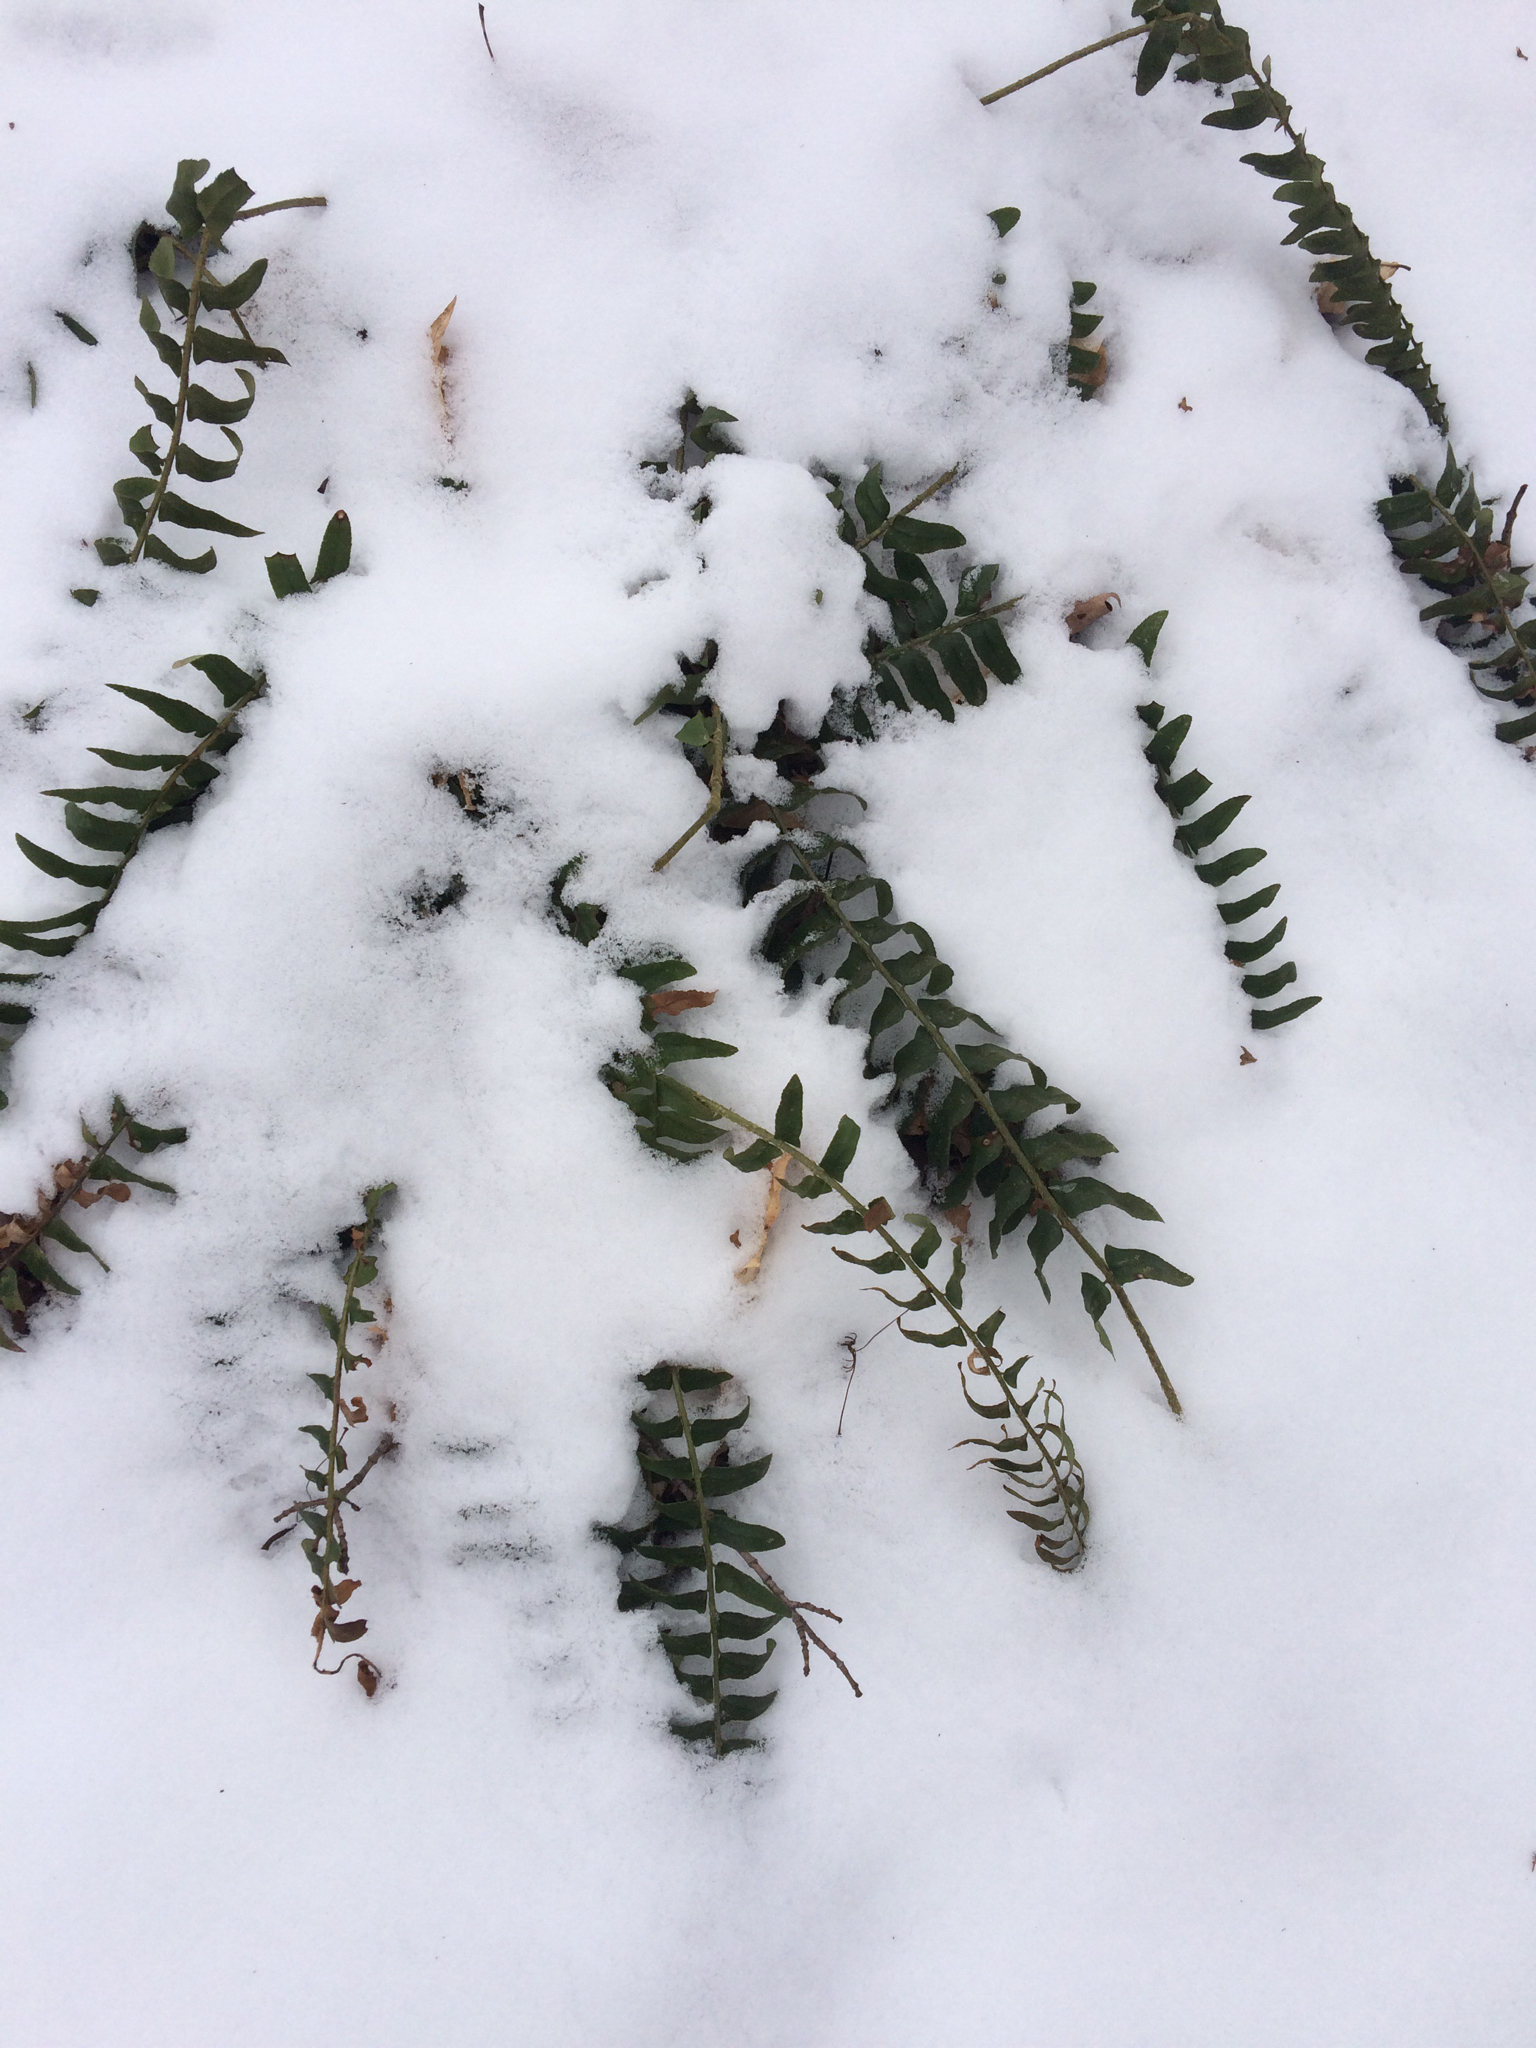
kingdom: Plantae
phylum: Tracheophyta
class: Polypodiopsida
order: Polypodiales
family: Dryopteridaceae
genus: Polystichum
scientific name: Polystichum acrostichoides
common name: Christmas fern
